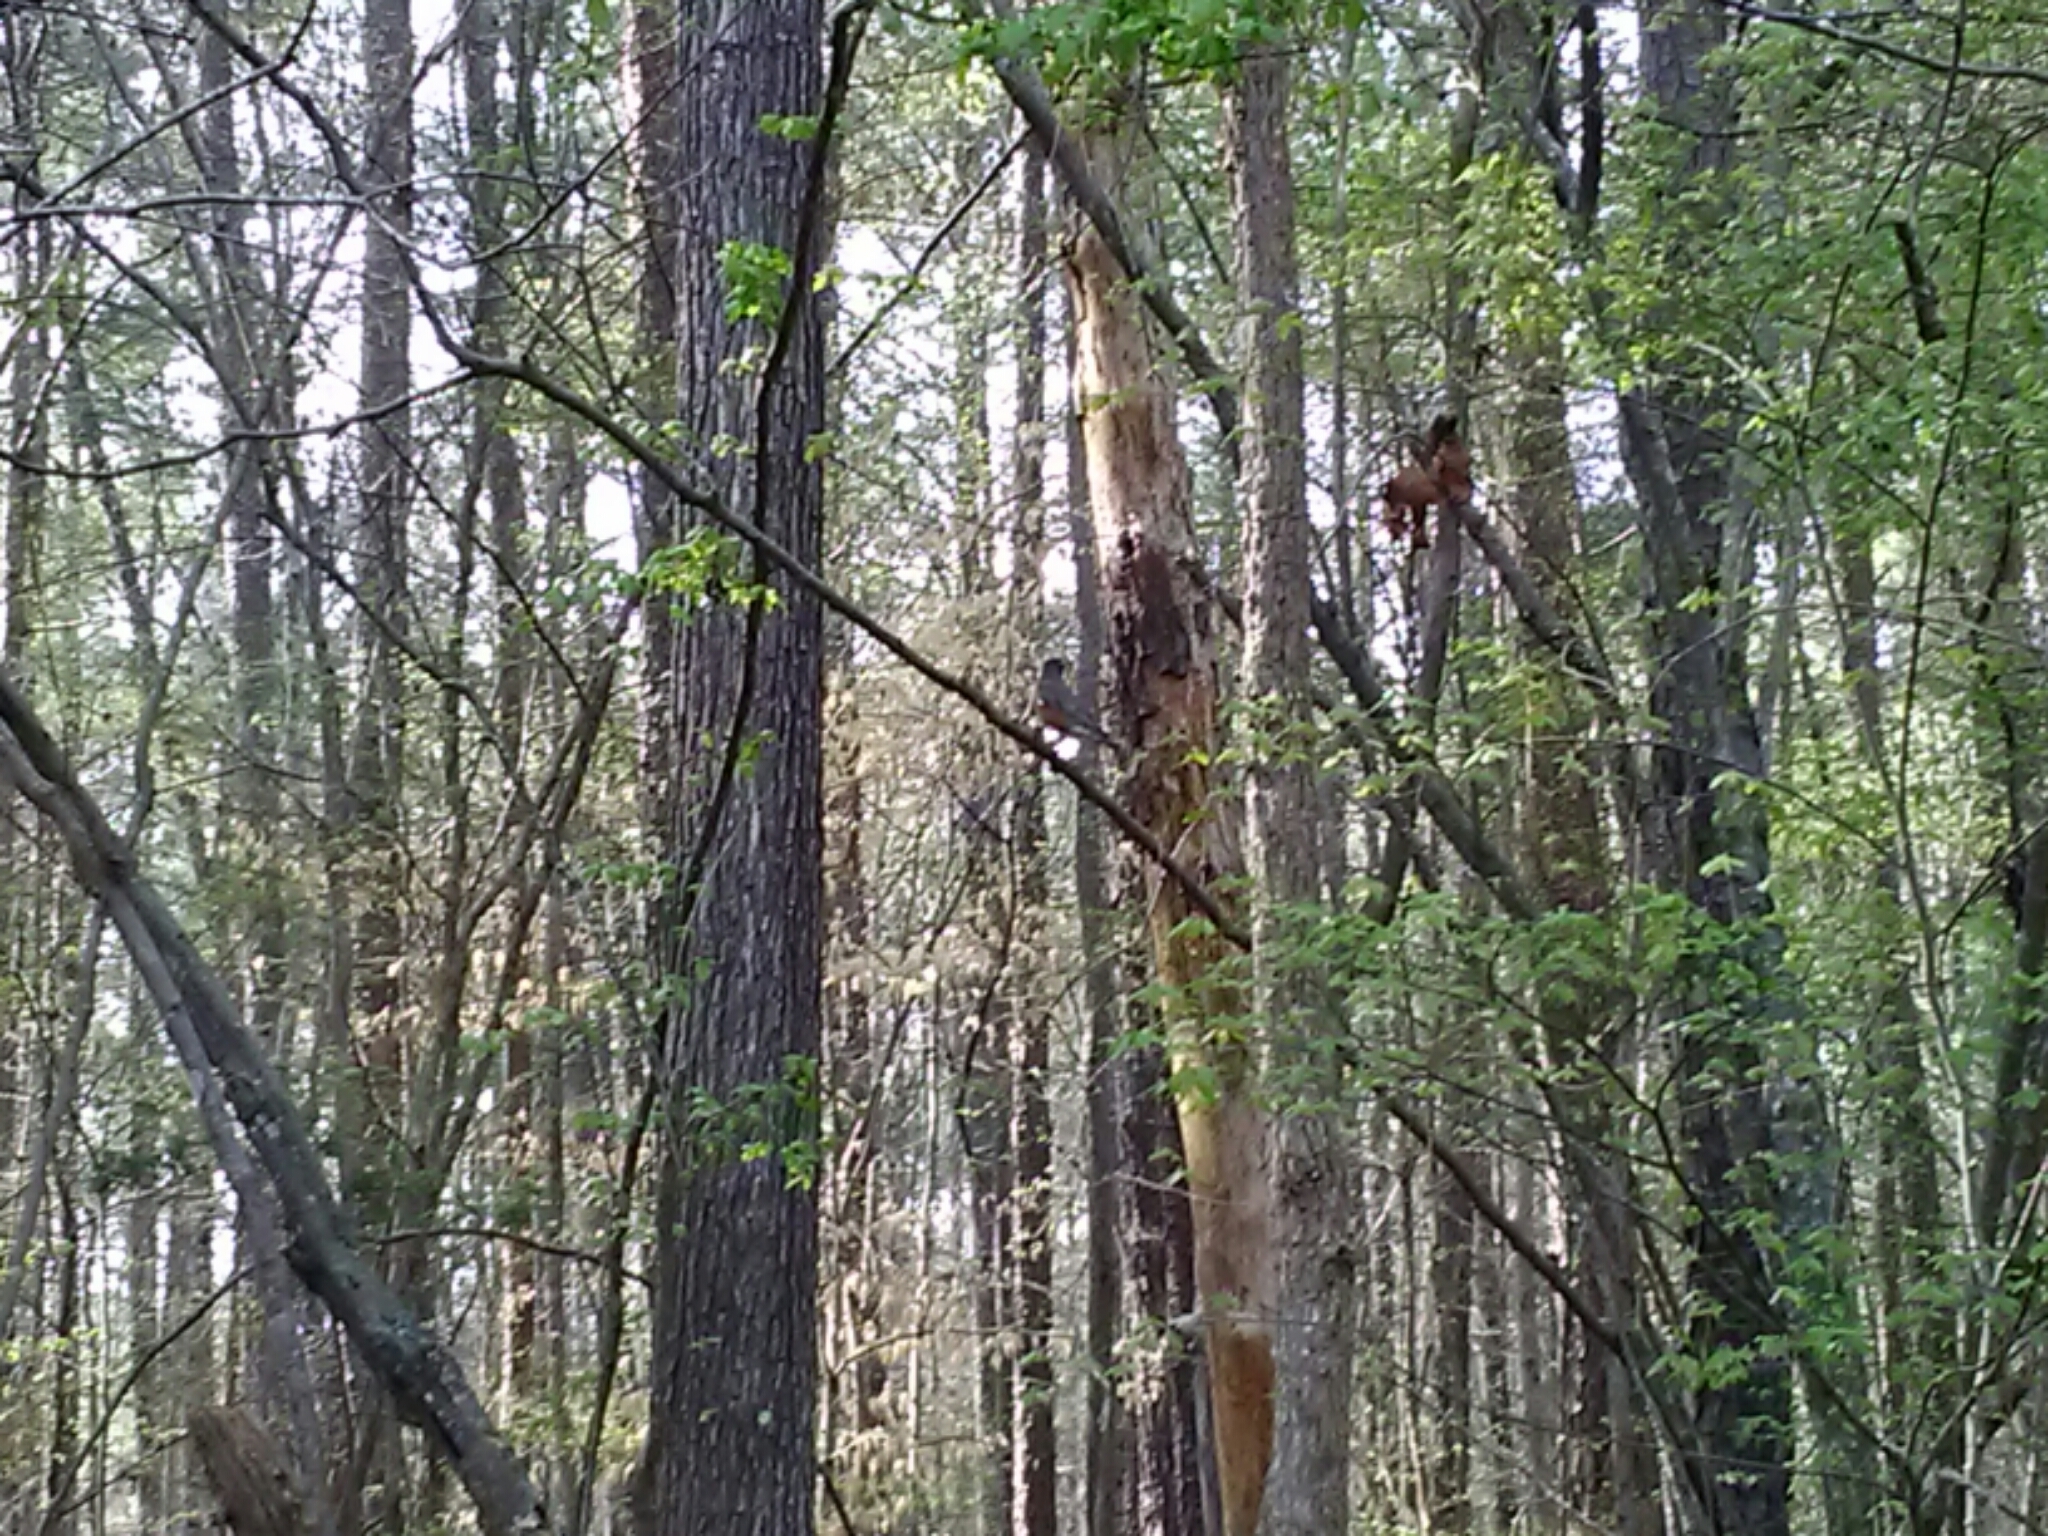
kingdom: Animalia
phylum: Chordata
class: Aves
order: Passeriformes
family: Turdidae
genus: Turdus
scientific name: Turdus migratorius
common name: American robin
